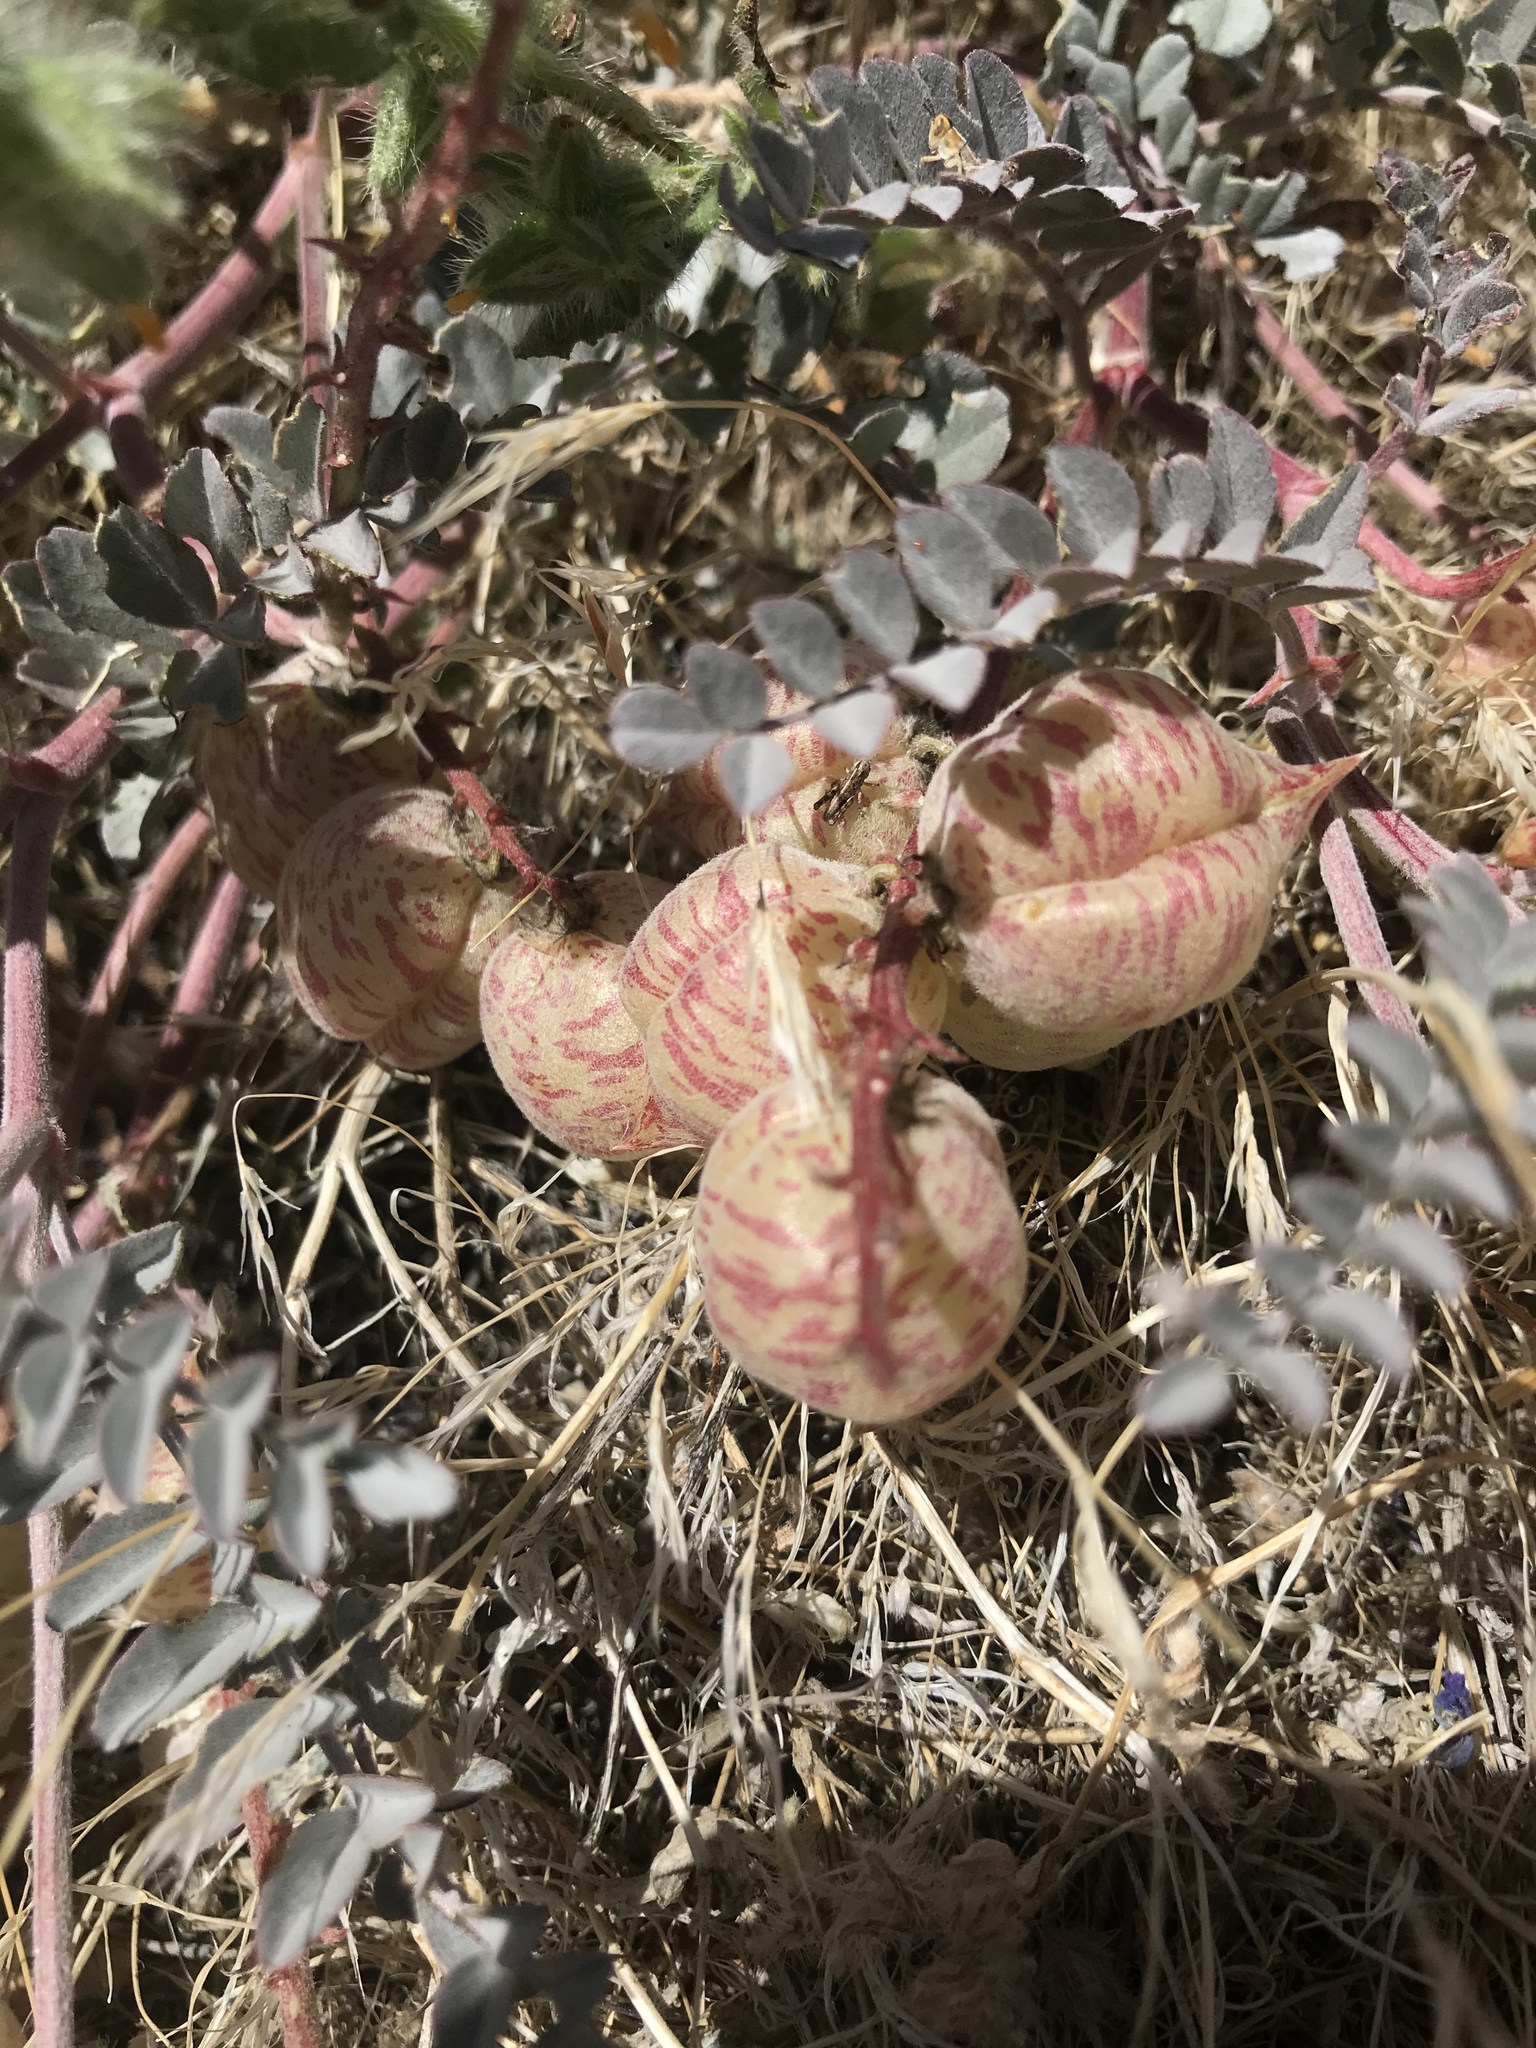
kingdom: Plantae
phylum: Tracheophyta
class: Magnoliopsida
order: Fabales
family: Fabaceae
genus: Astragalus
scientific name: Astragalus lentiginosus
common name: Freckled milkvetch
